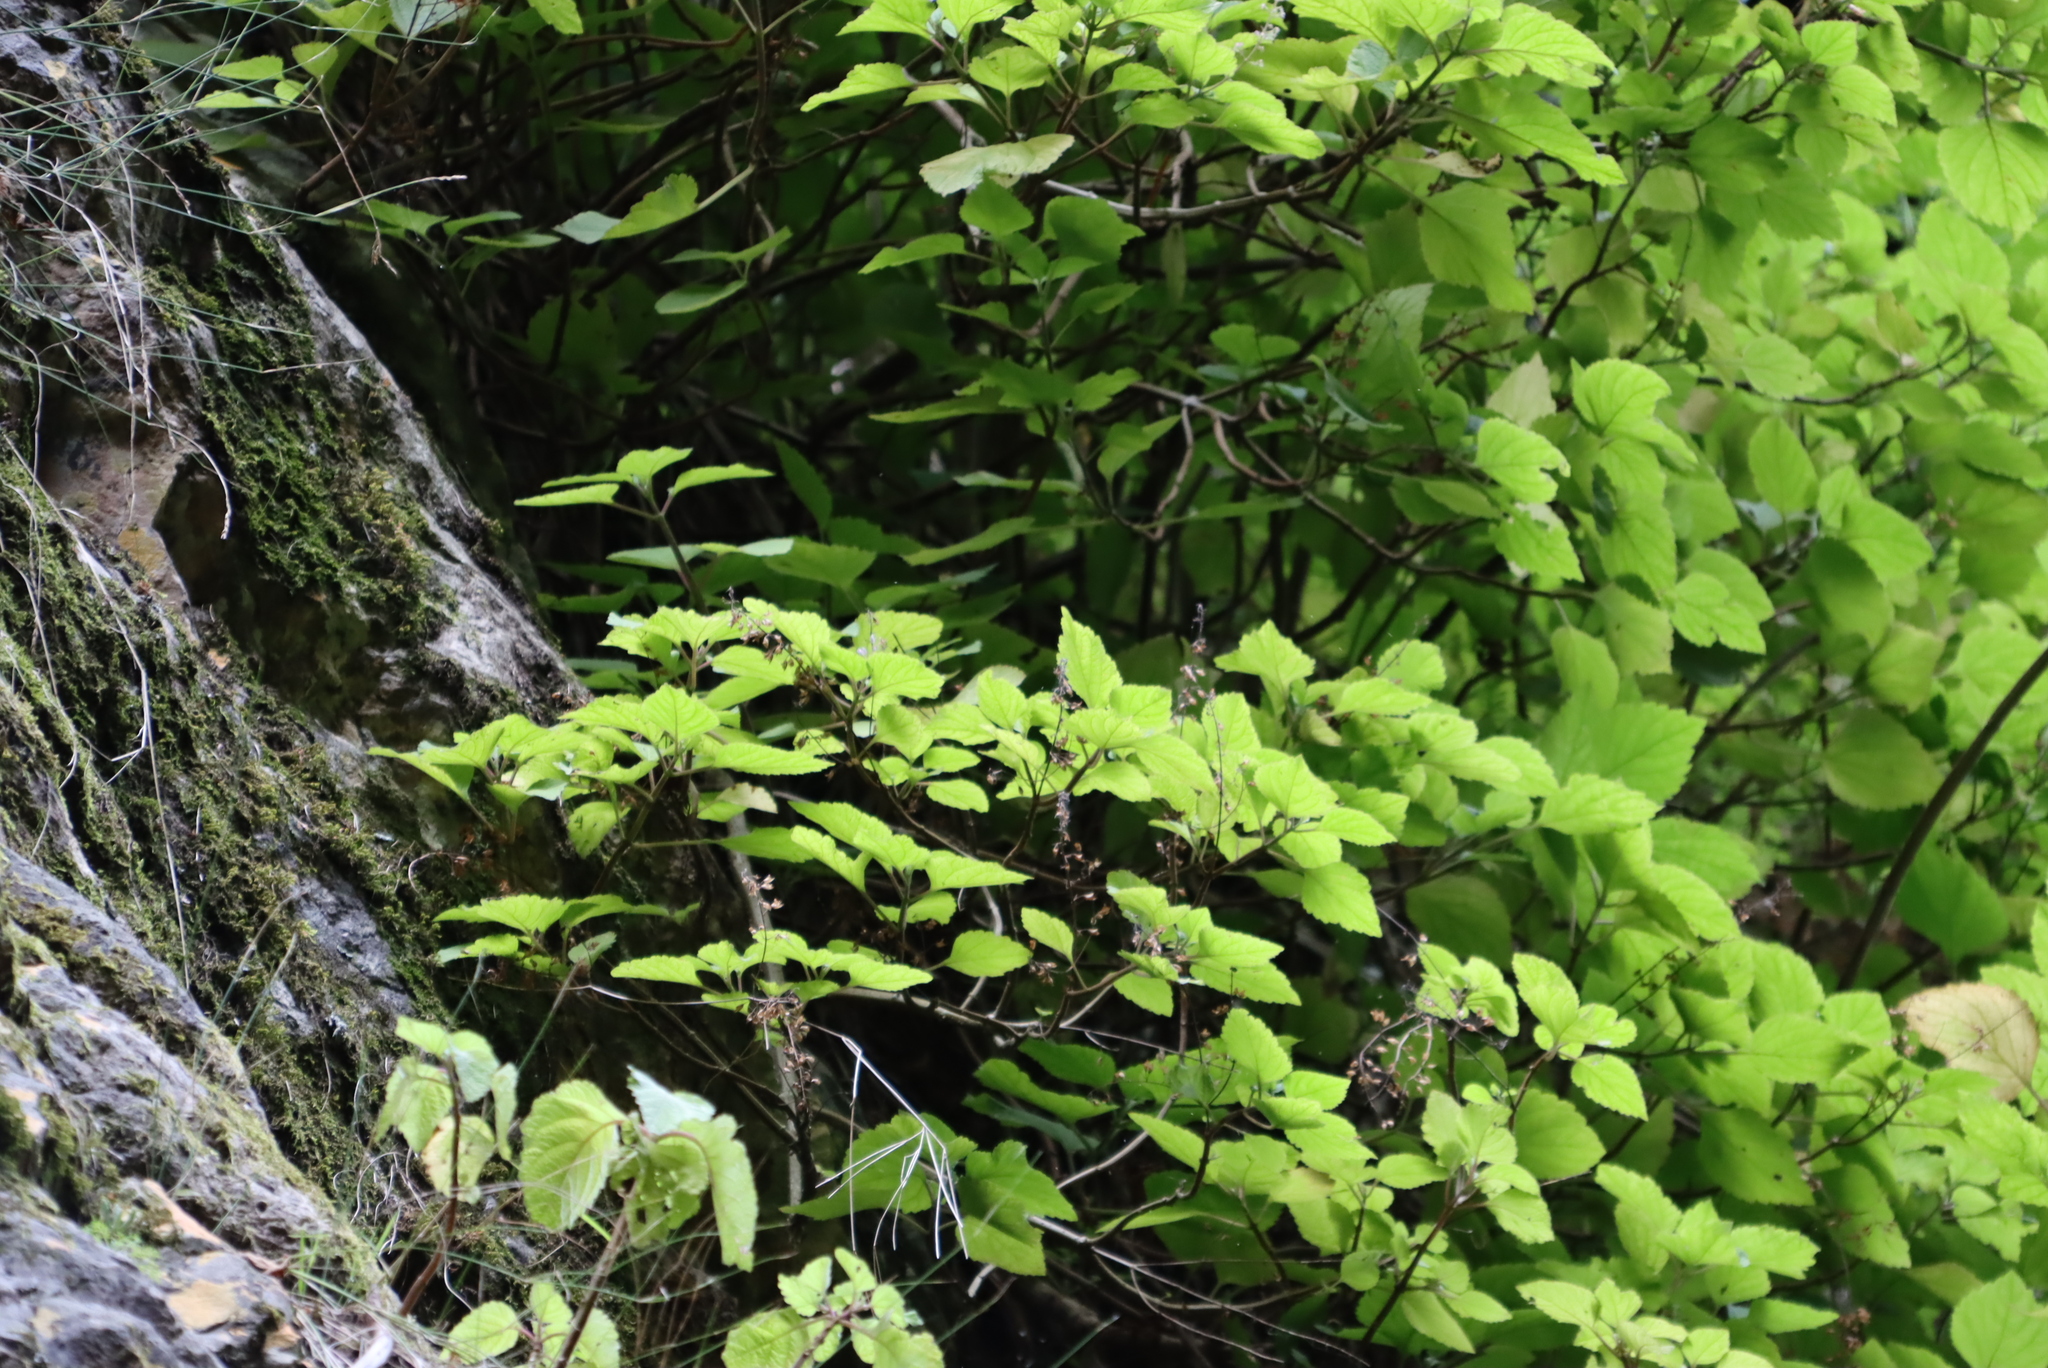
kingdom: Plantae
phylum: Tracheophyta
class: Magnoliopsida
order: Lamiales
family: Lamiaceae
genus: Plectranthus
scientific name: Plectranthus fruticosus
